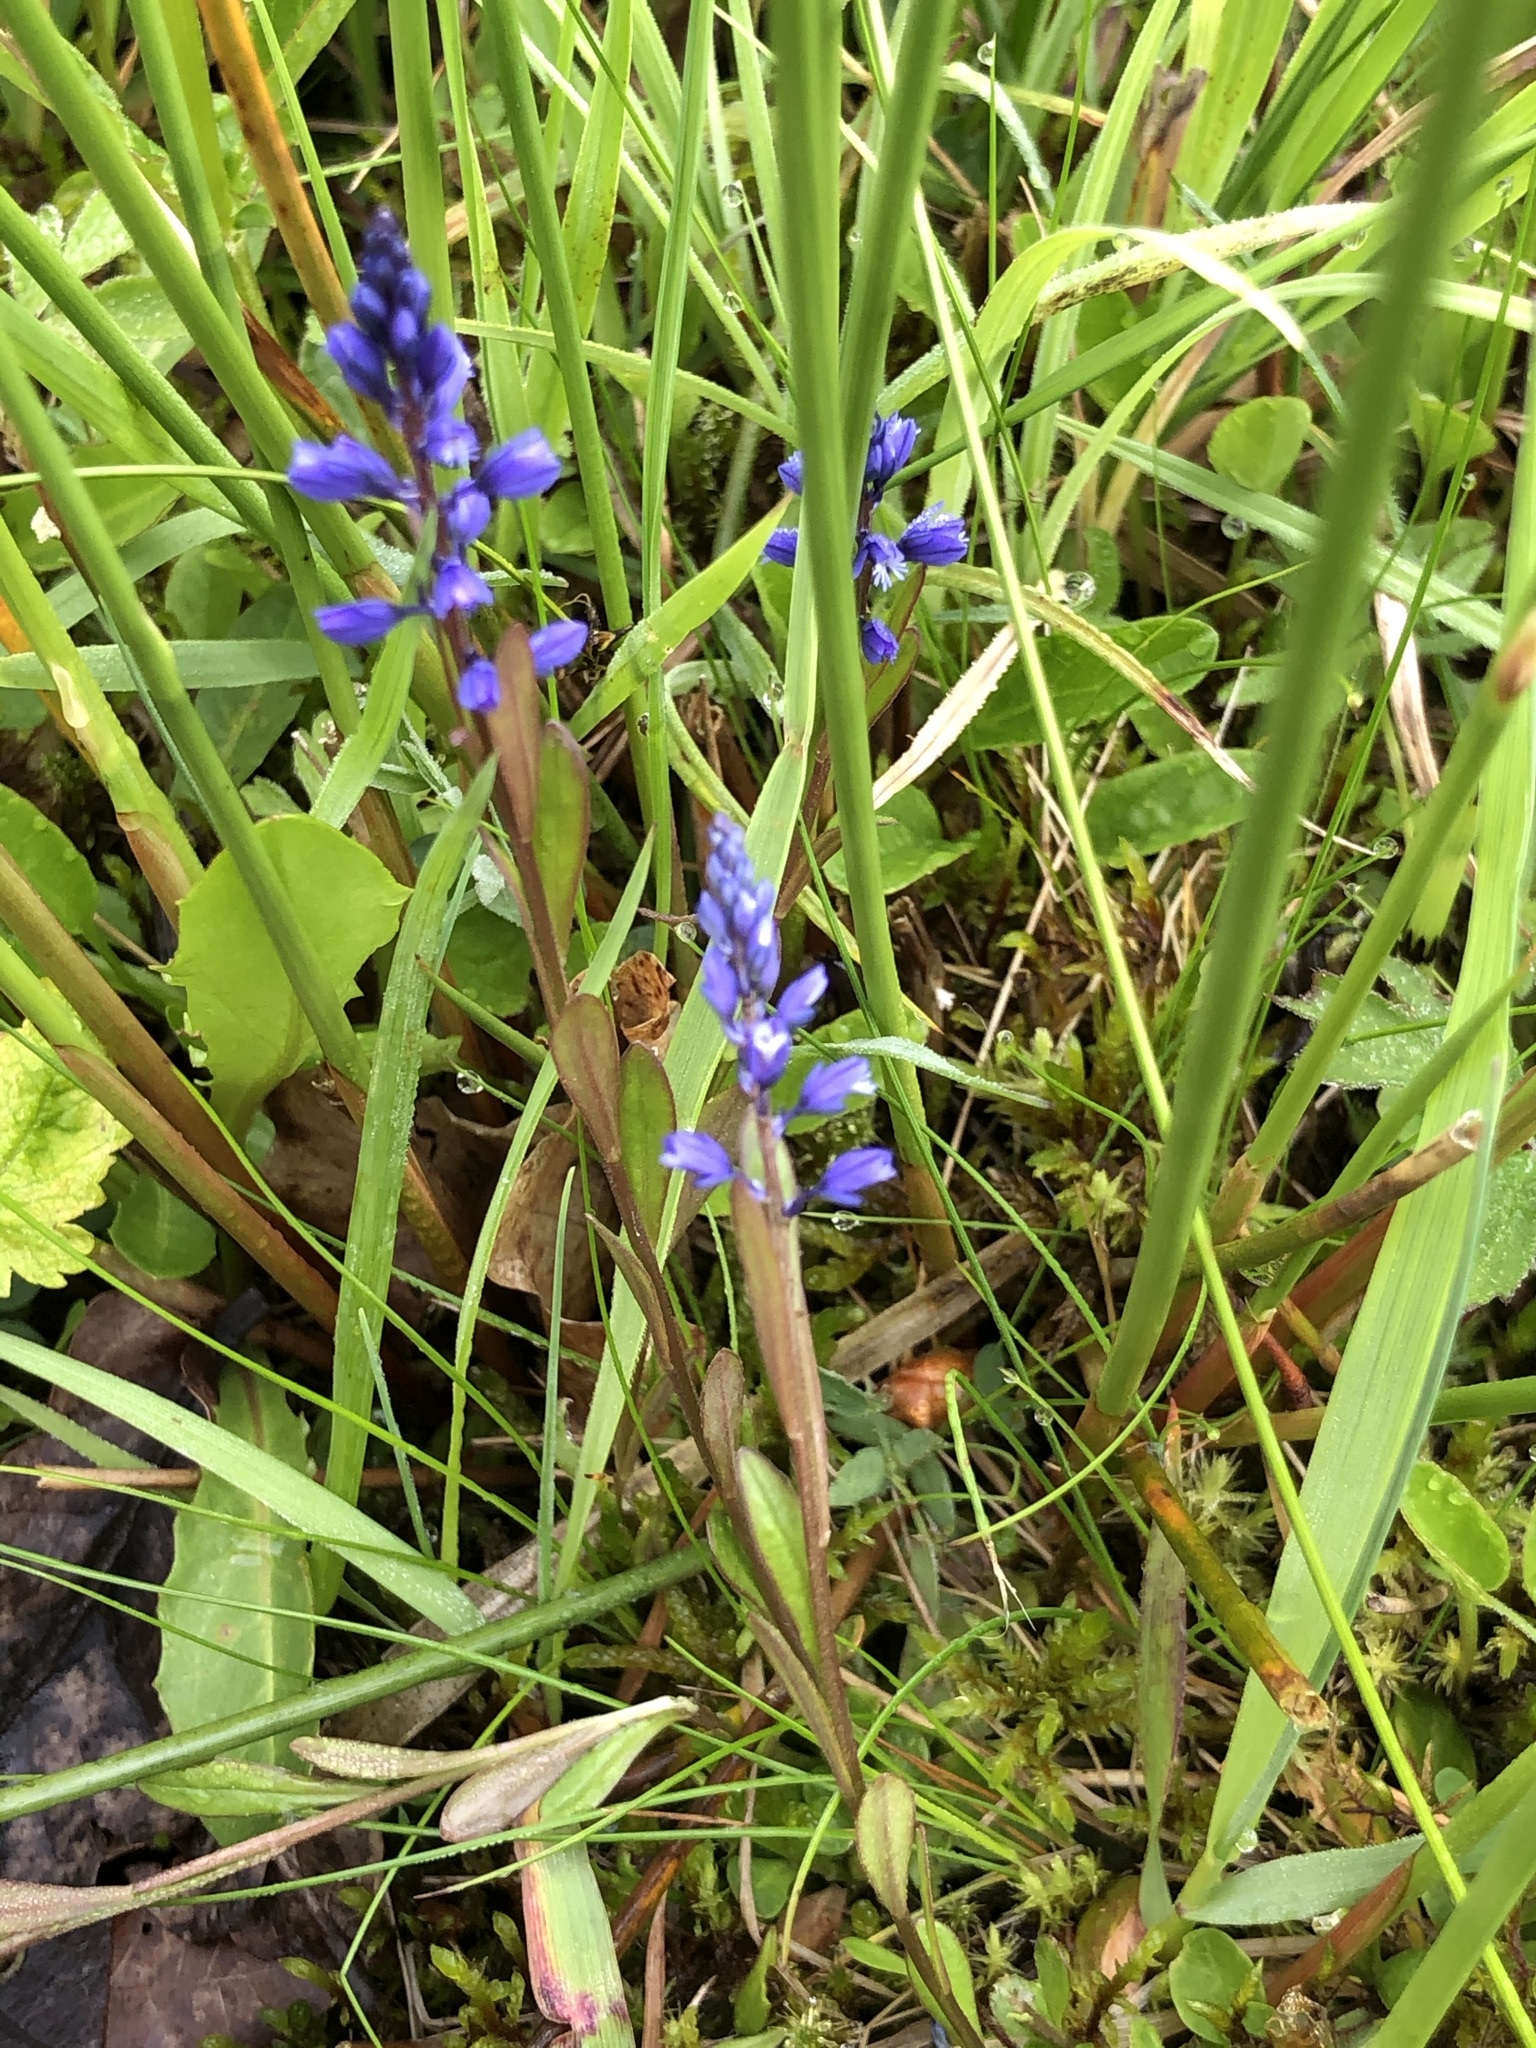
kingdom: Plantae
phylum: Tracheophyta
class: Magnoliopsida
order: Fabales
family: Polygalaceae
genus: Polygala
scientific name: Polygala vulgaris
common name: Common milkwort
